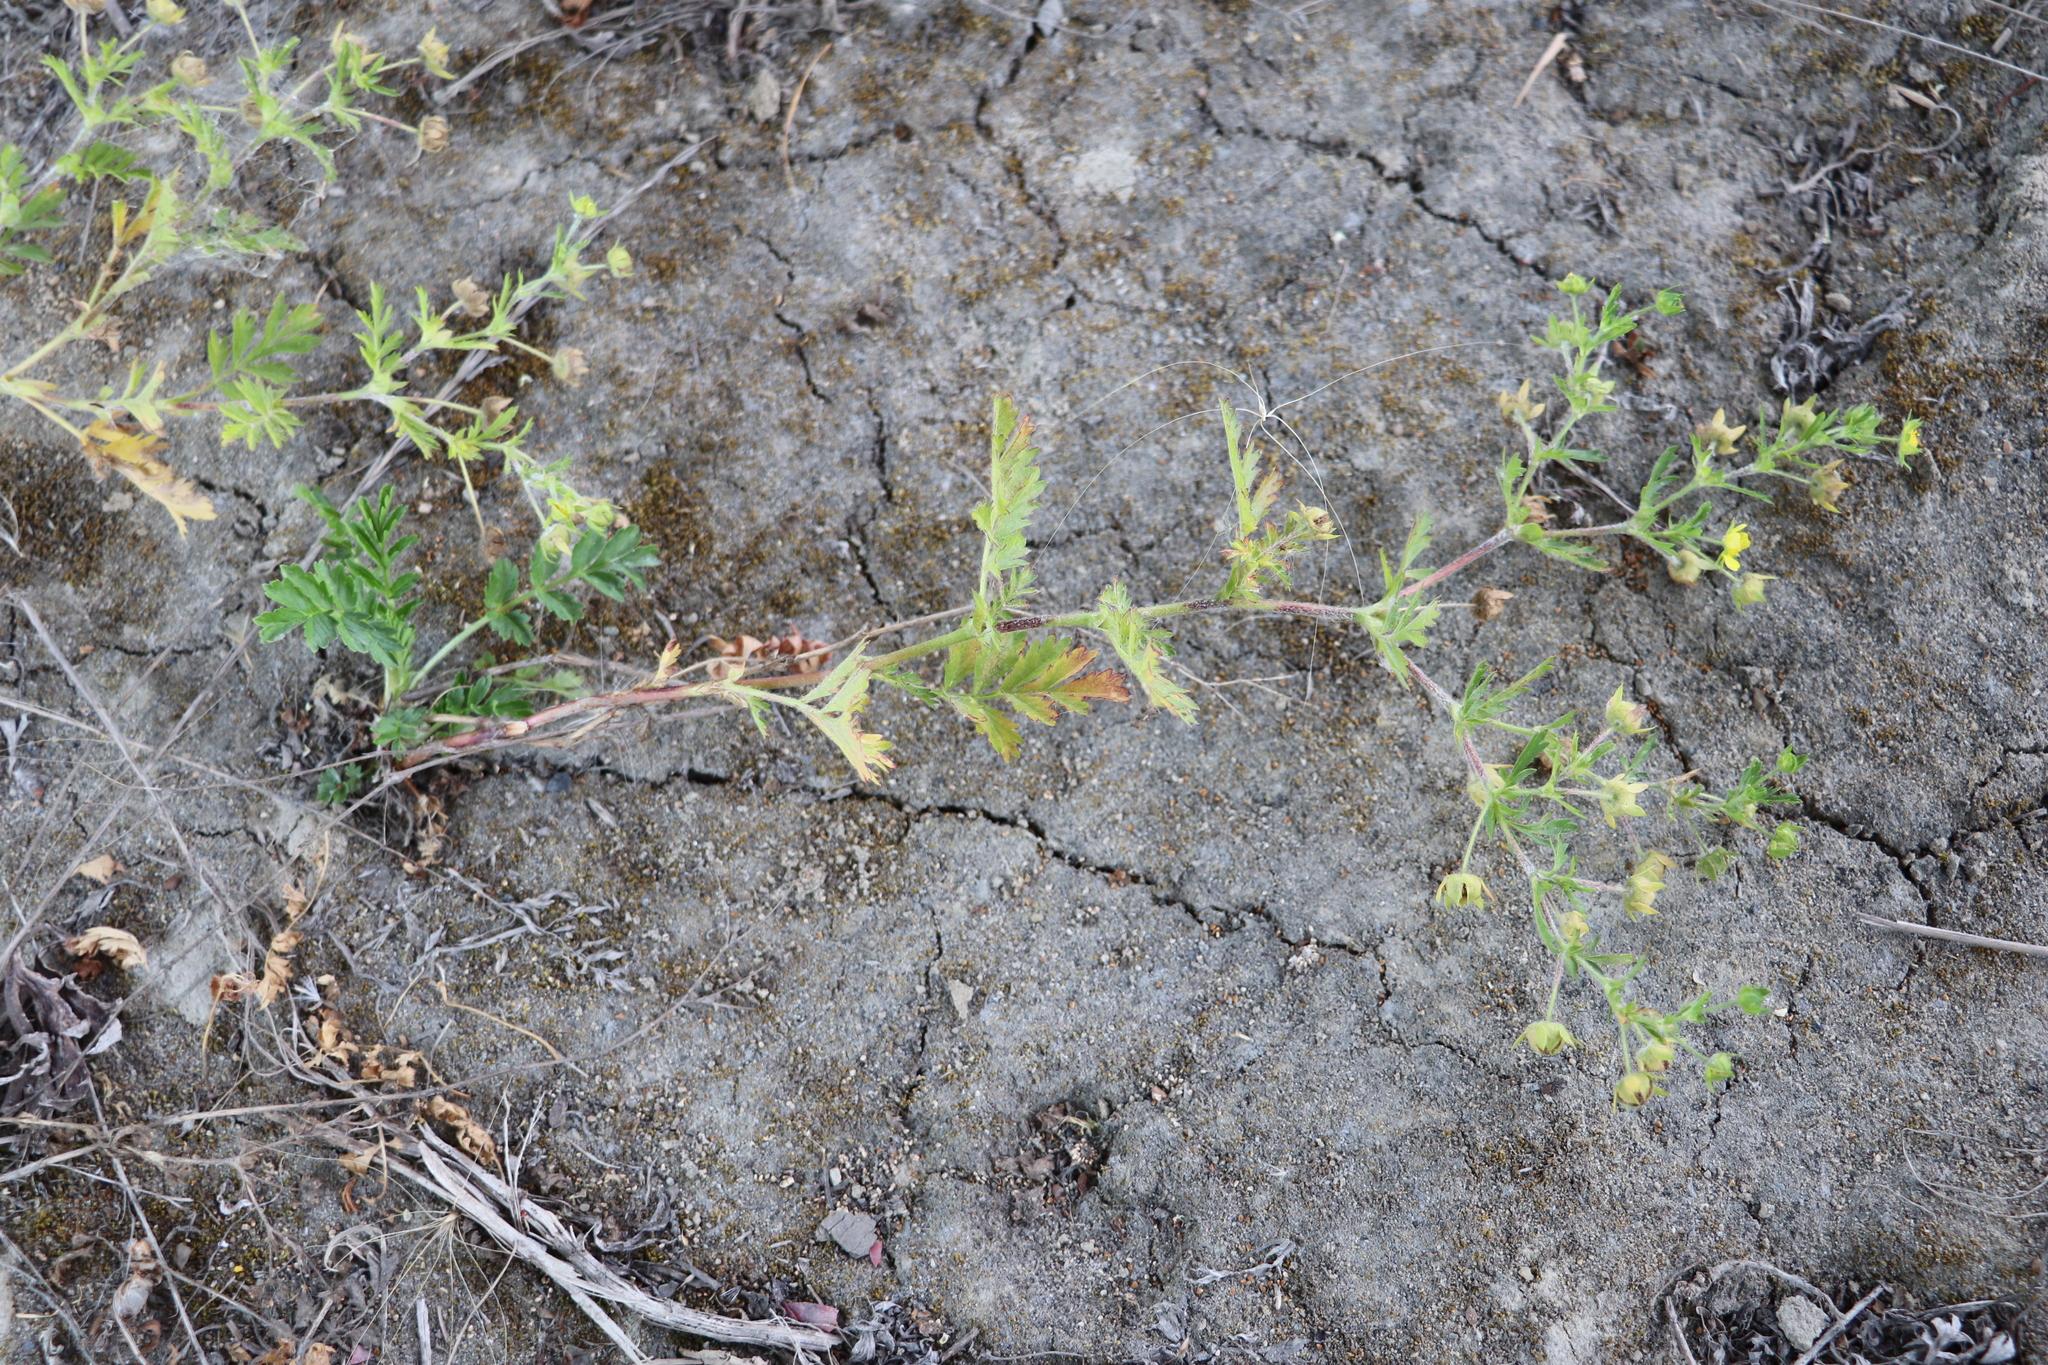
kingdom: Plantae
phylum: Tracheophyta
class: Magnoliopsida
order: Rosales
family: Rosaceae
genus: Potentilla
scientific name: Potentilla supina
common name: Prostrate cinquefoil
